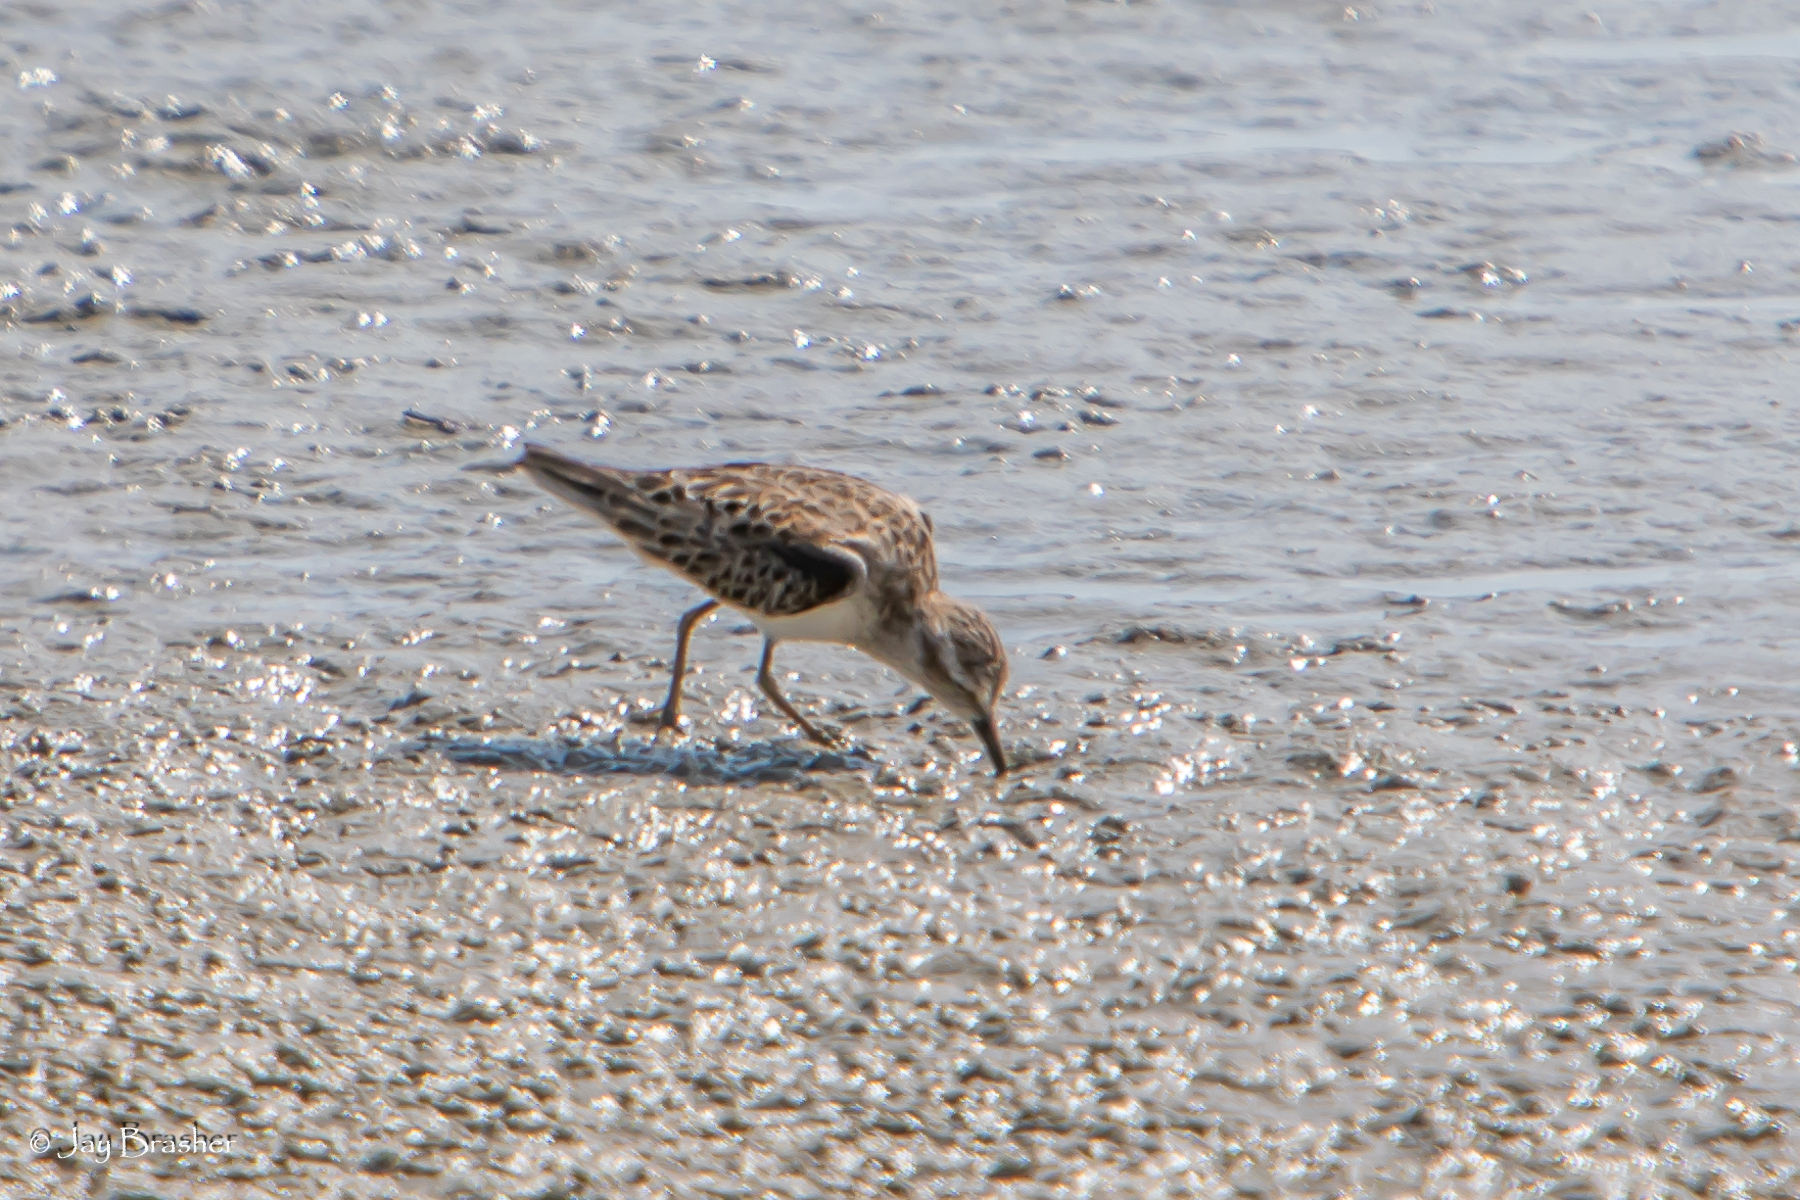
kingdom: Animalia
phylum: Chordata
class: Aves
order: Charadriiformes
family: Scolopacidae
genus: Calidris
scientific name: Calidris minutilla
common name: Least sandpiper
